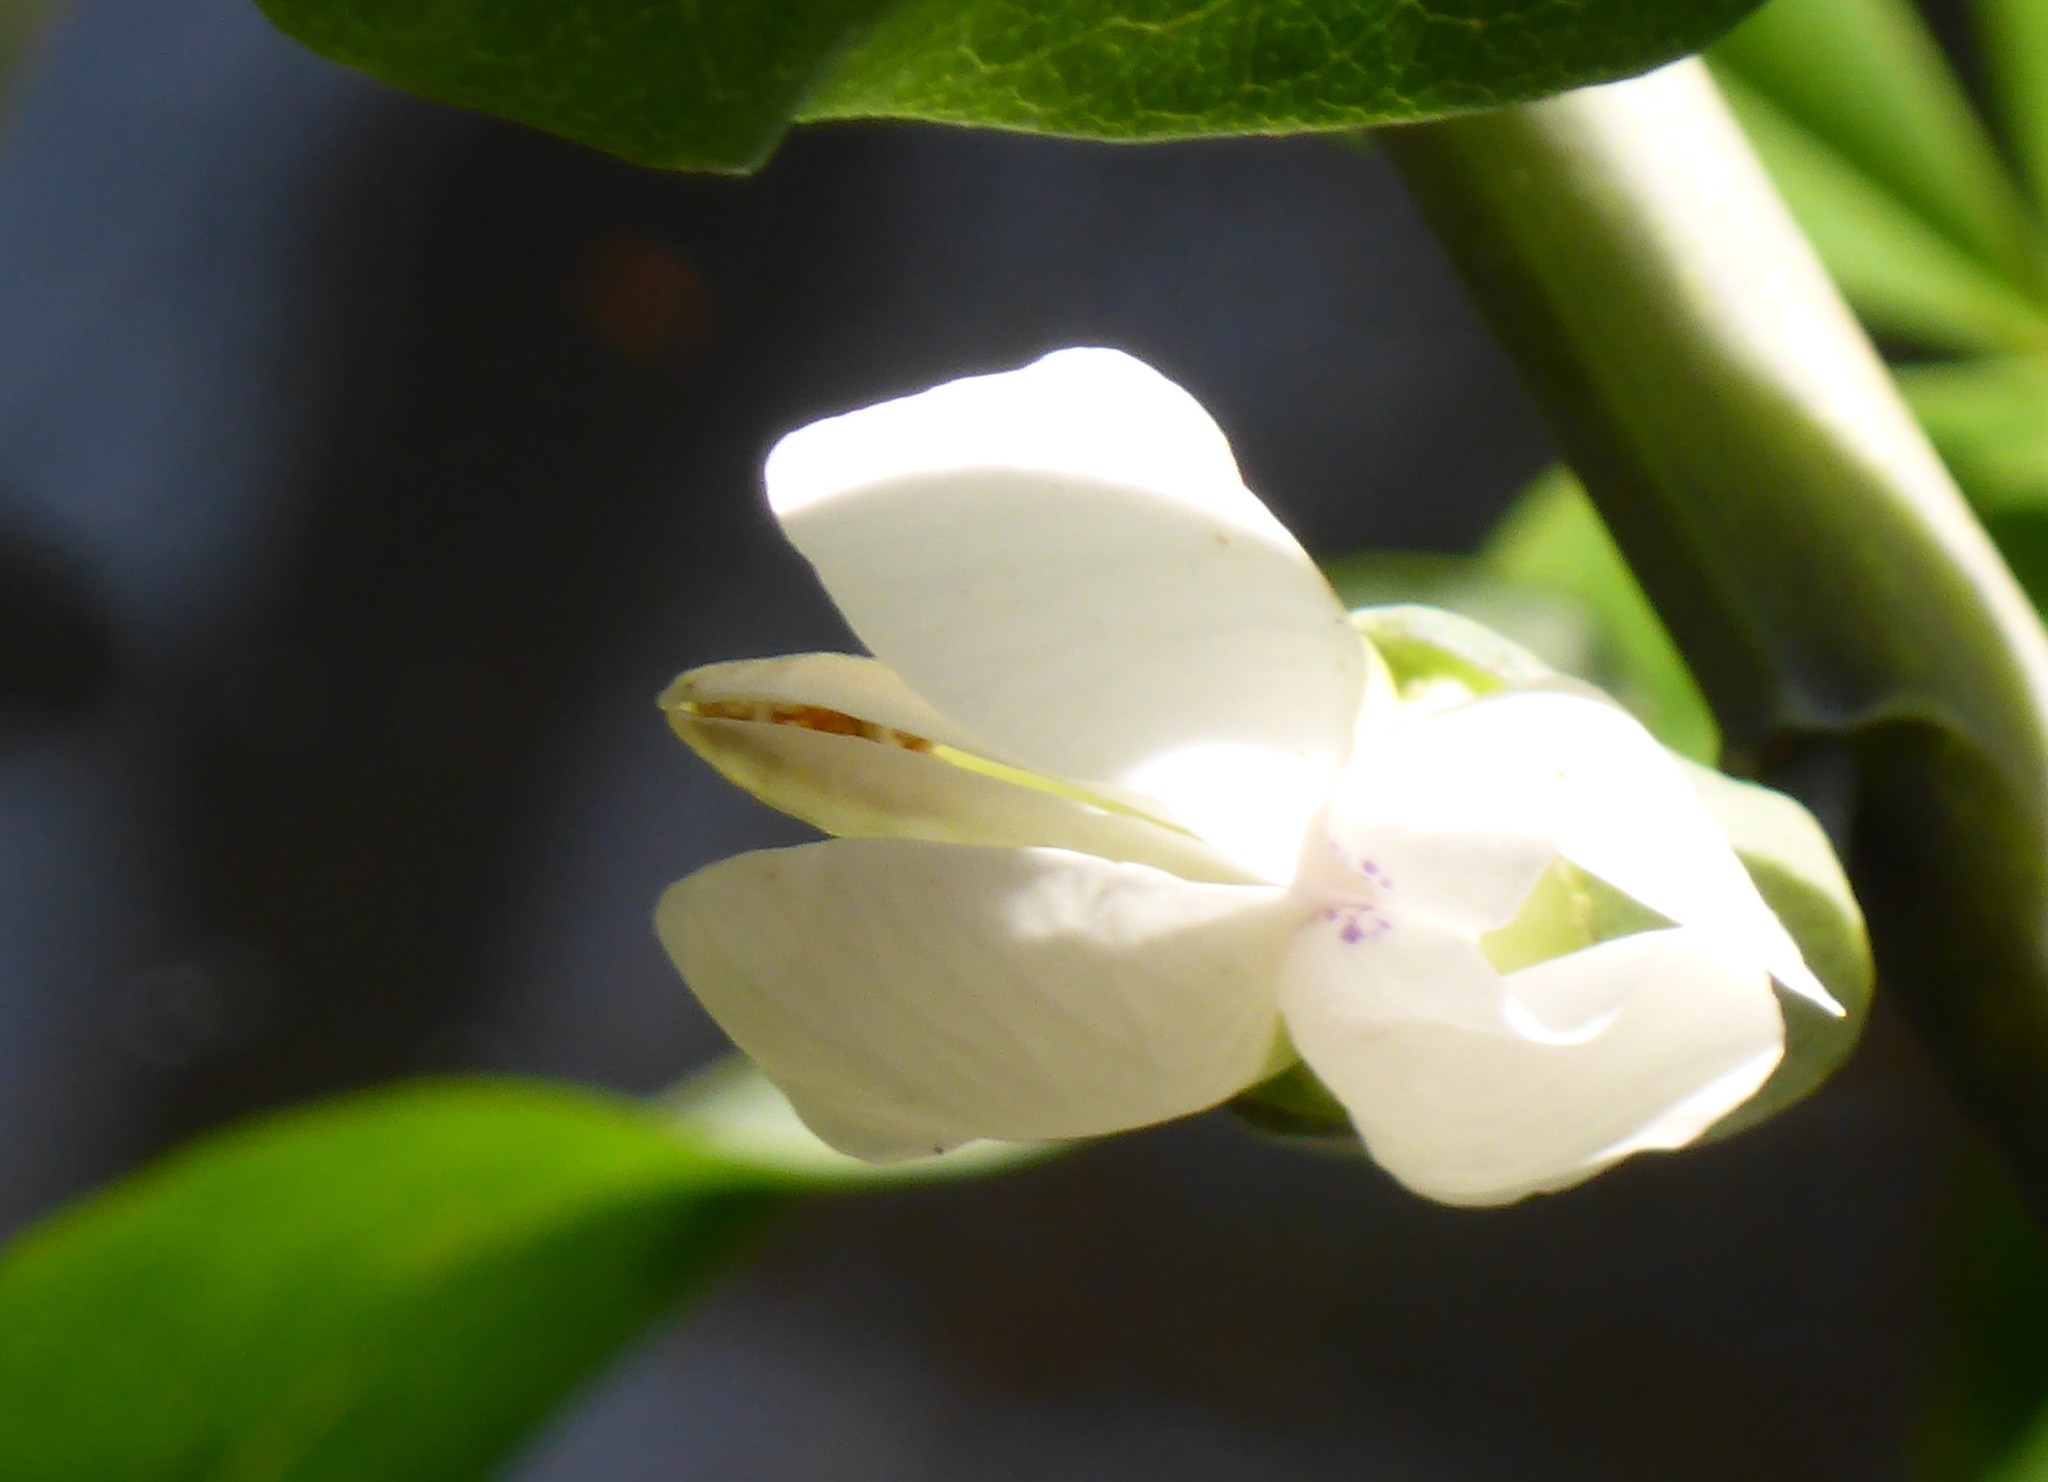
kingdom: Plantae
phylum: Tracheophyta
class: Magnoliopsida
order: Fabales
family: Fabaceae
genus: Baptisia
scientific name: Baptisia alba
